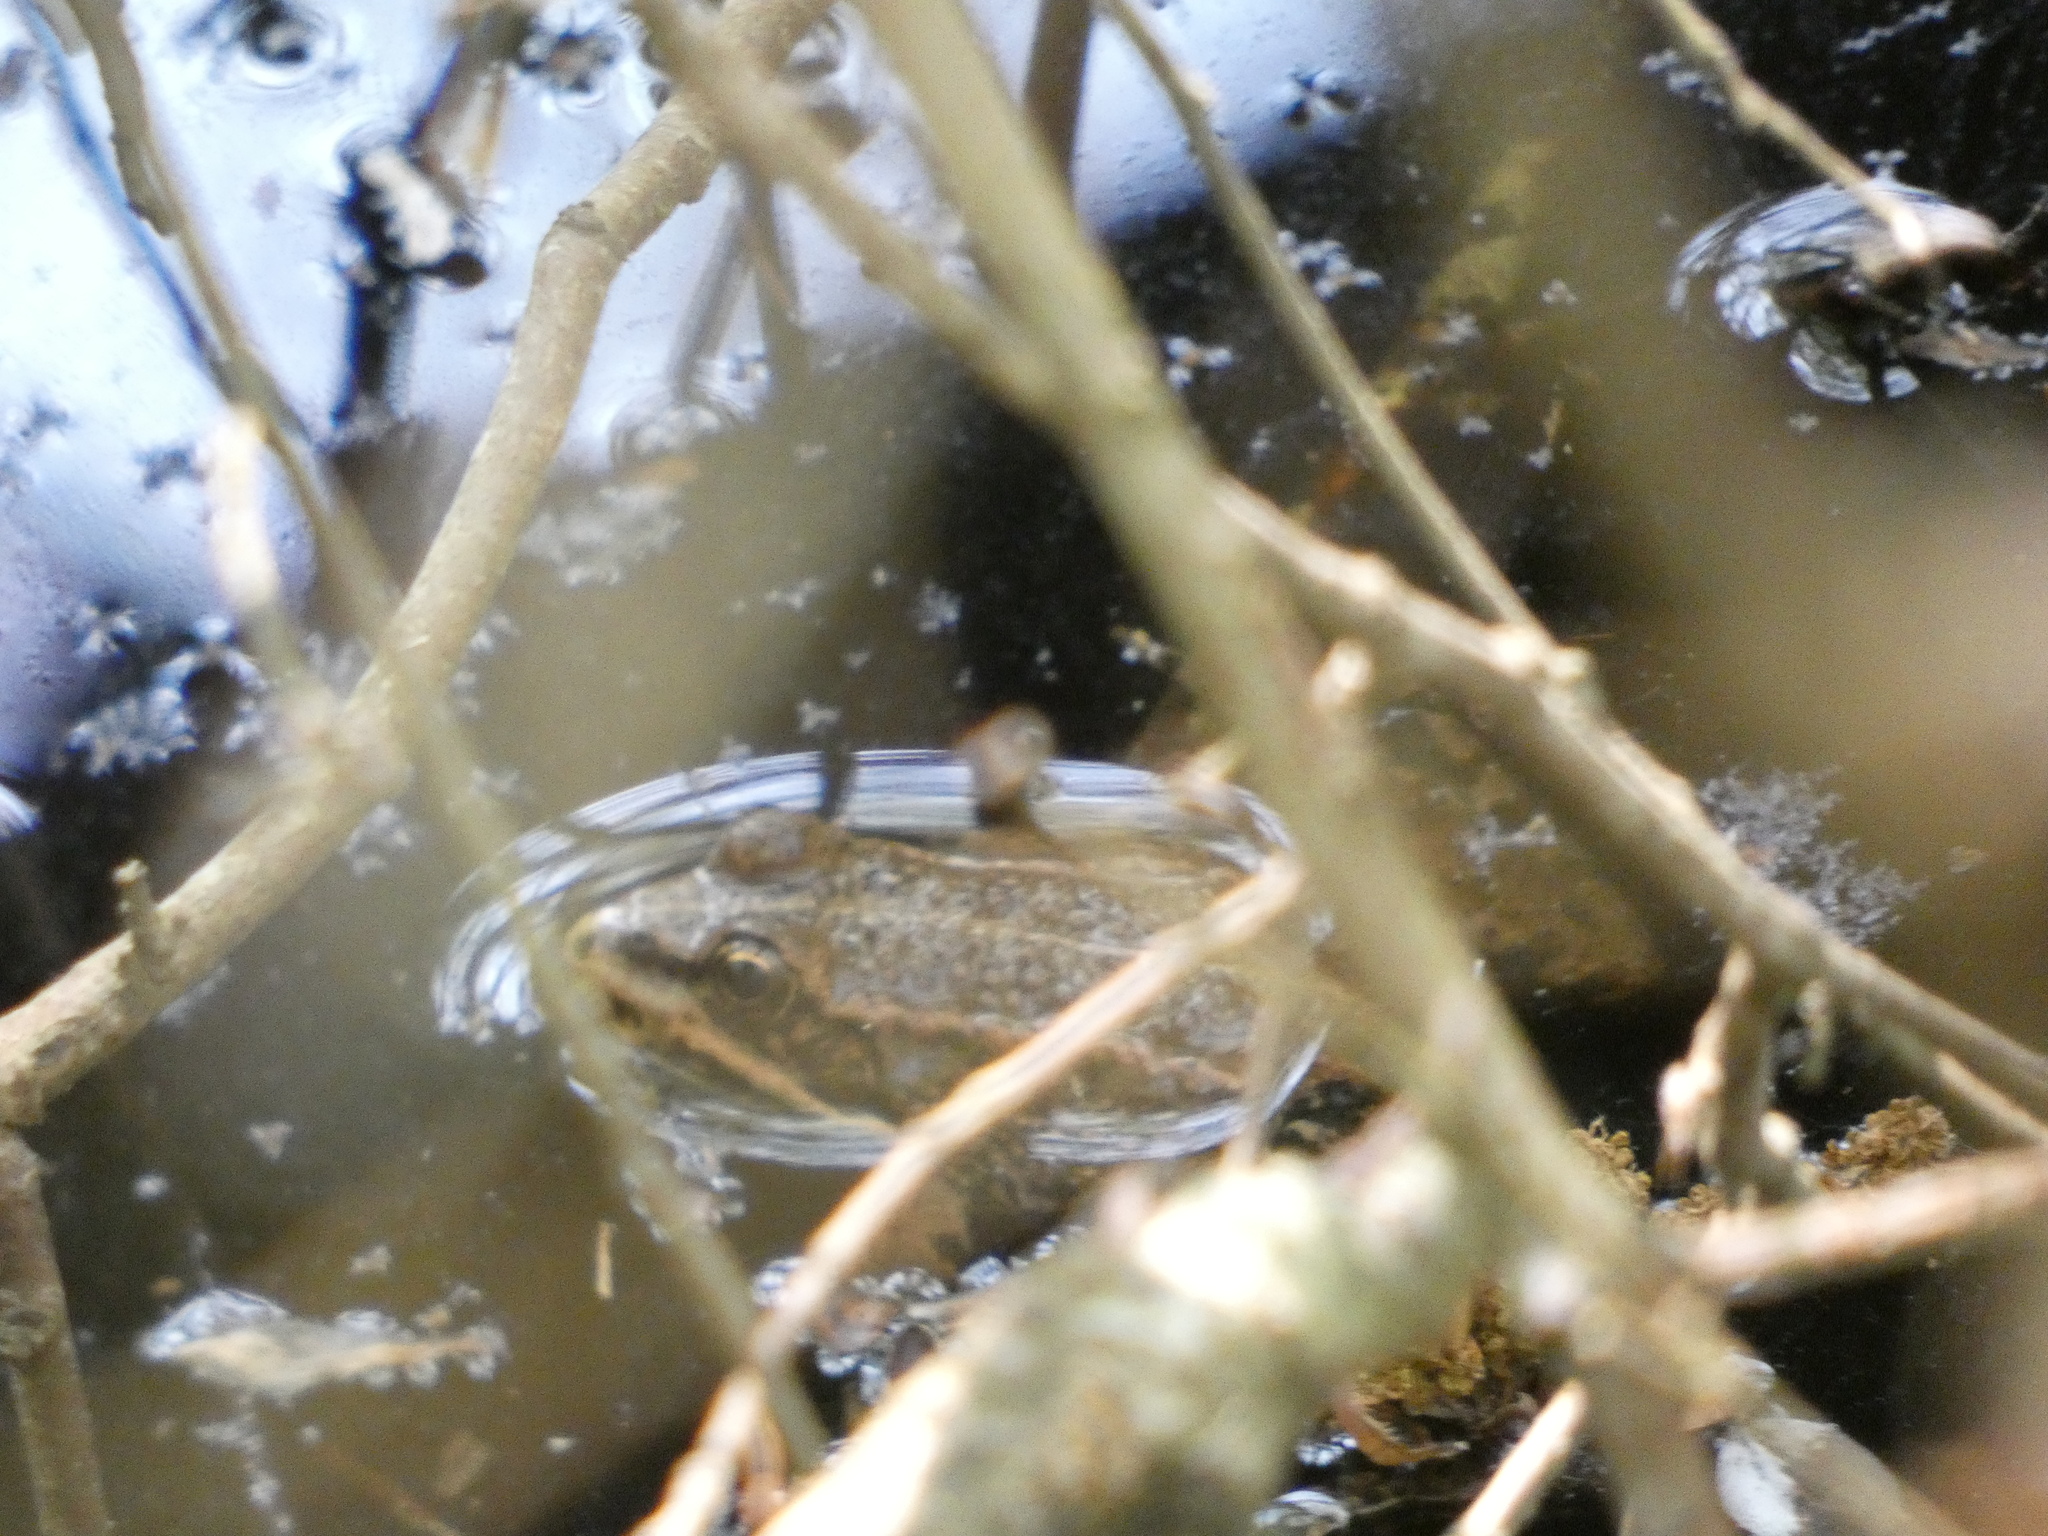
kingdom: Animalia
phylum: Chordata
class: Amphibia
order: Anura
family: Ranidae
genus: Pelophylax
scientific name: Pelophylax
